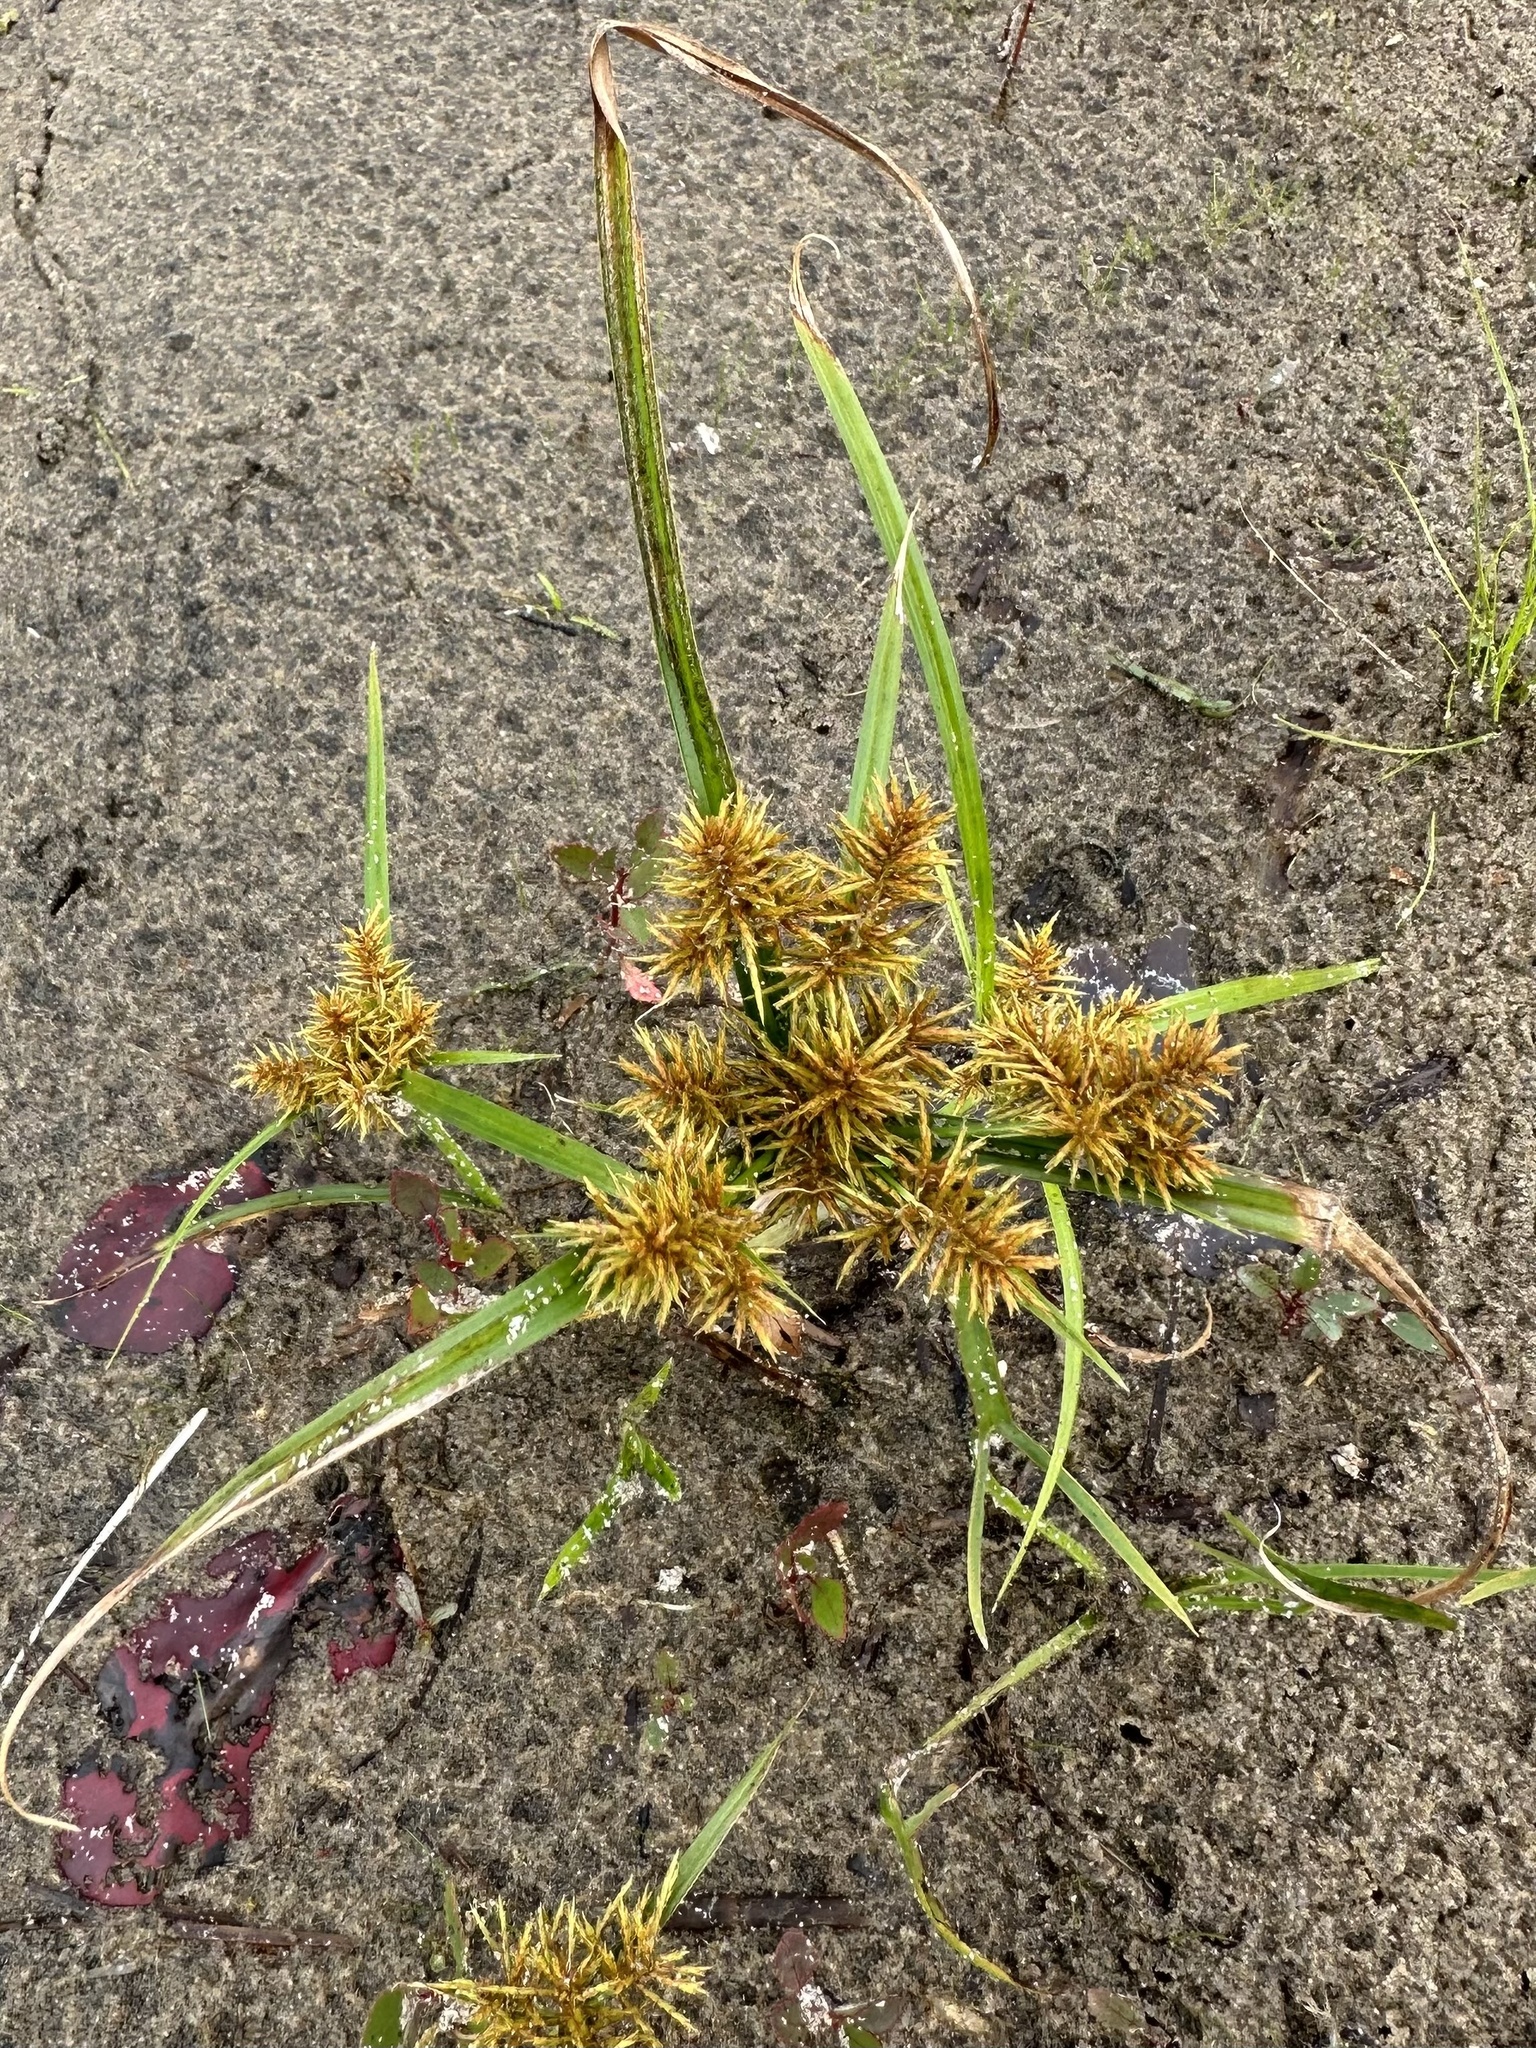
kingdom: Plantae
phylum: Tracheophyta
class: Liliopsida
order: Poales
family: Cyperaceae
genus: Cyperus
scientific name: Cyperus strigosus
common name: False nutsedge
